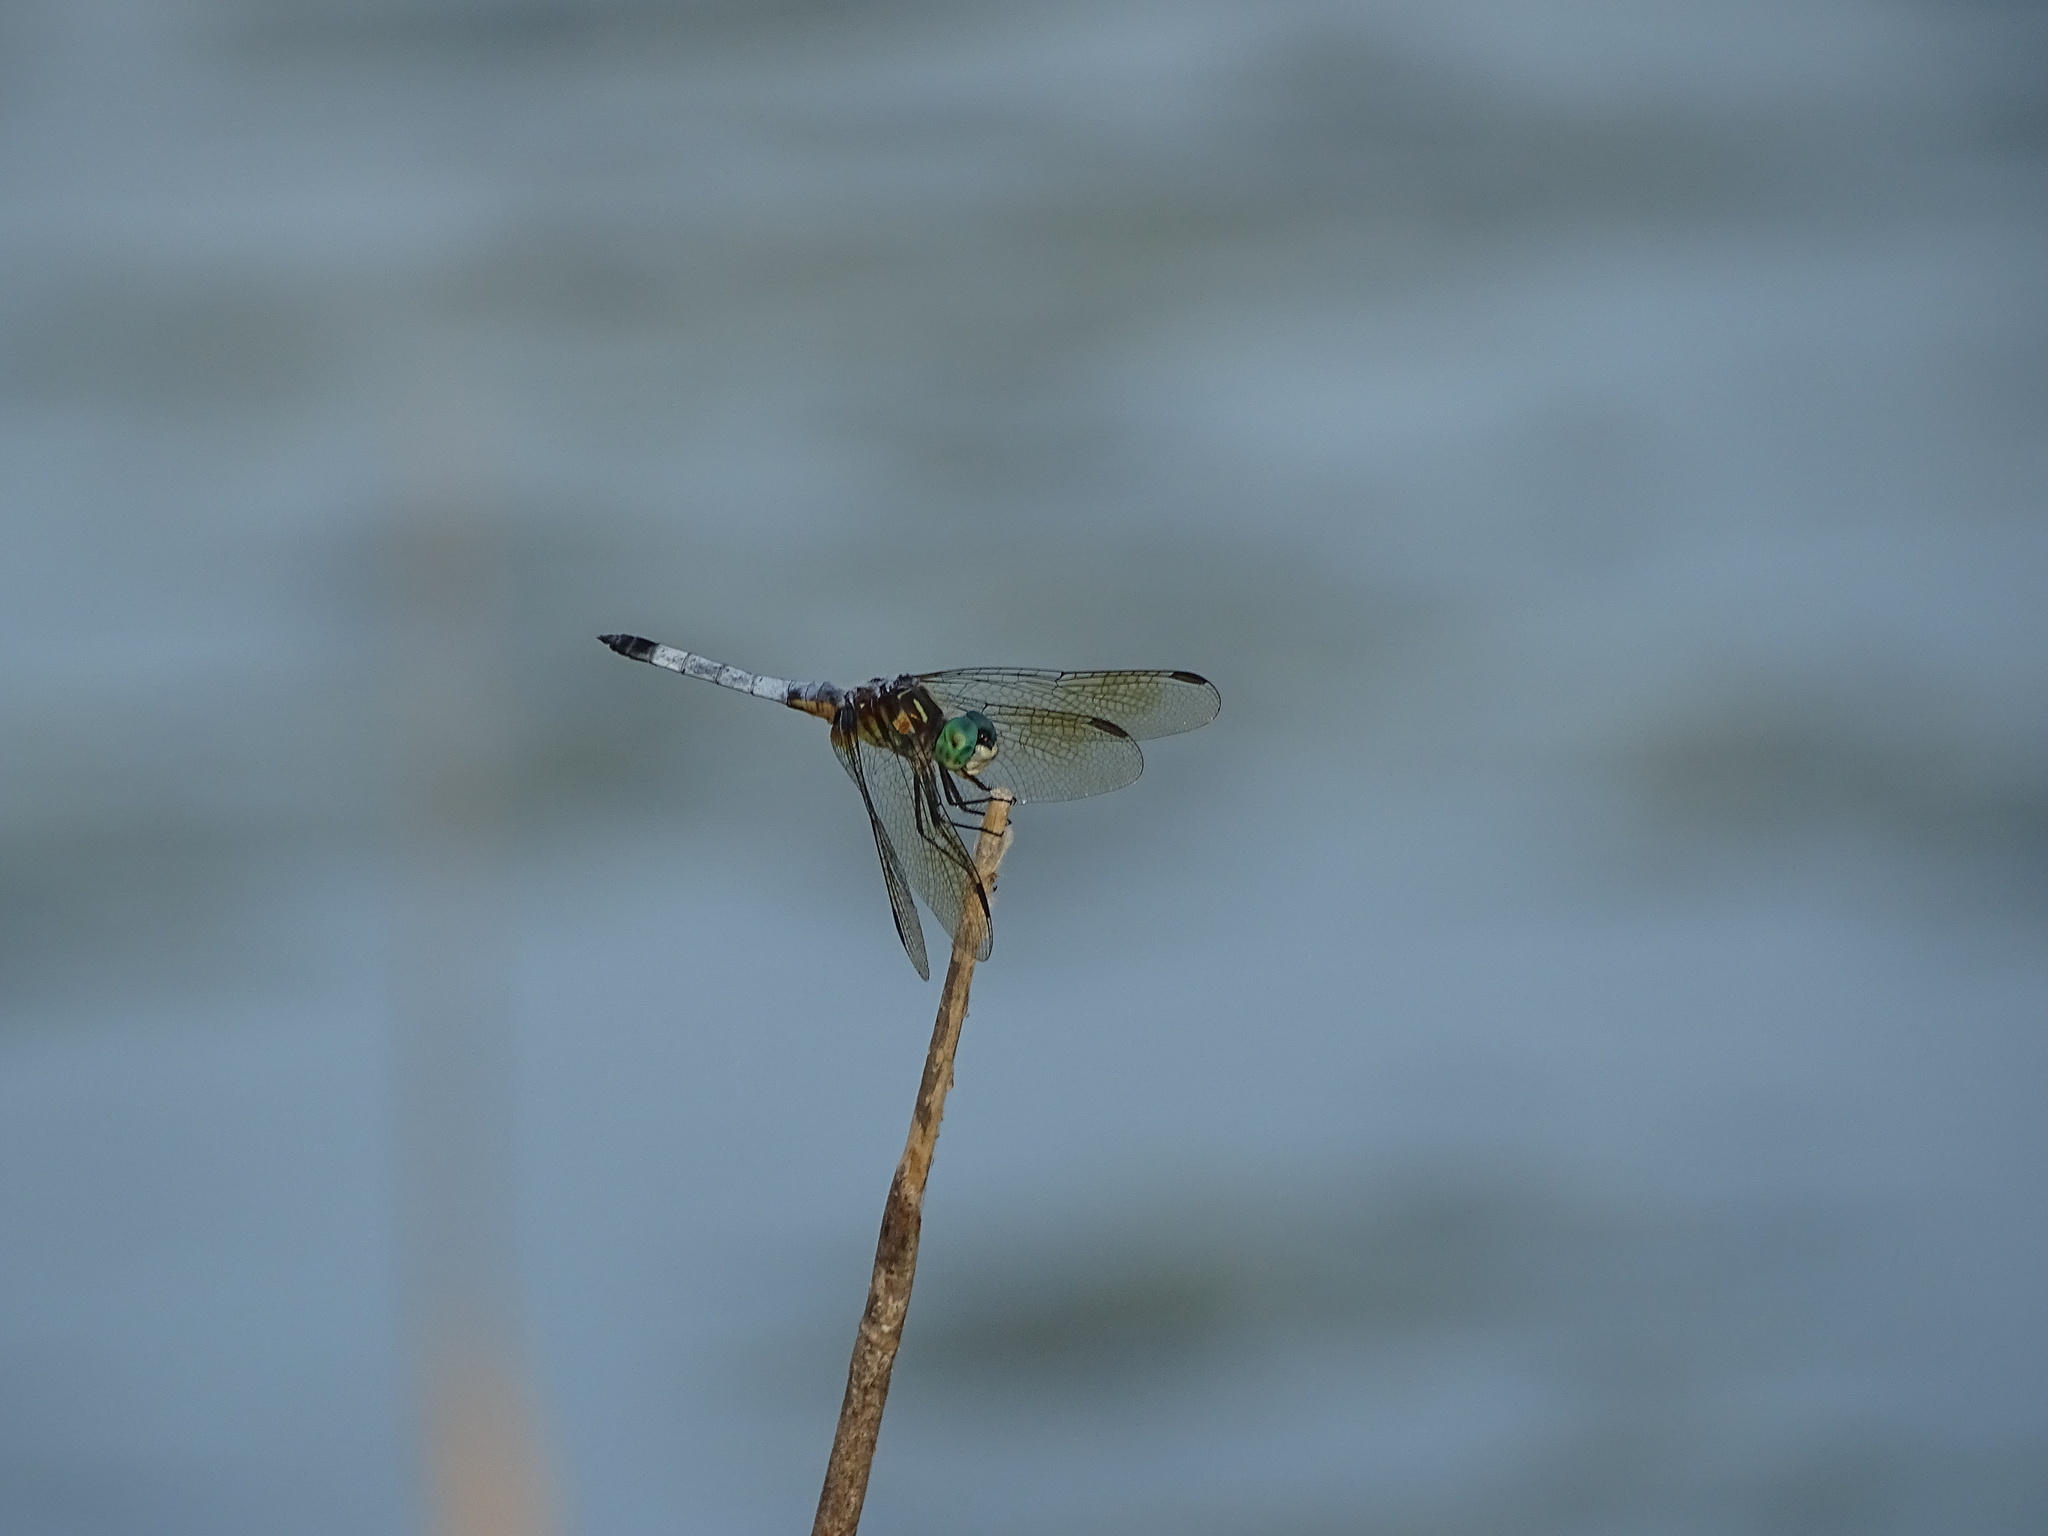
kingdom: Animalia
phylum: Arthropoda
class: Insecta
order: Odonata
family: Libellulidae
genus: Pachydiplax
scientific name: Pachydiplax longipennis
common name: Blue dasher
